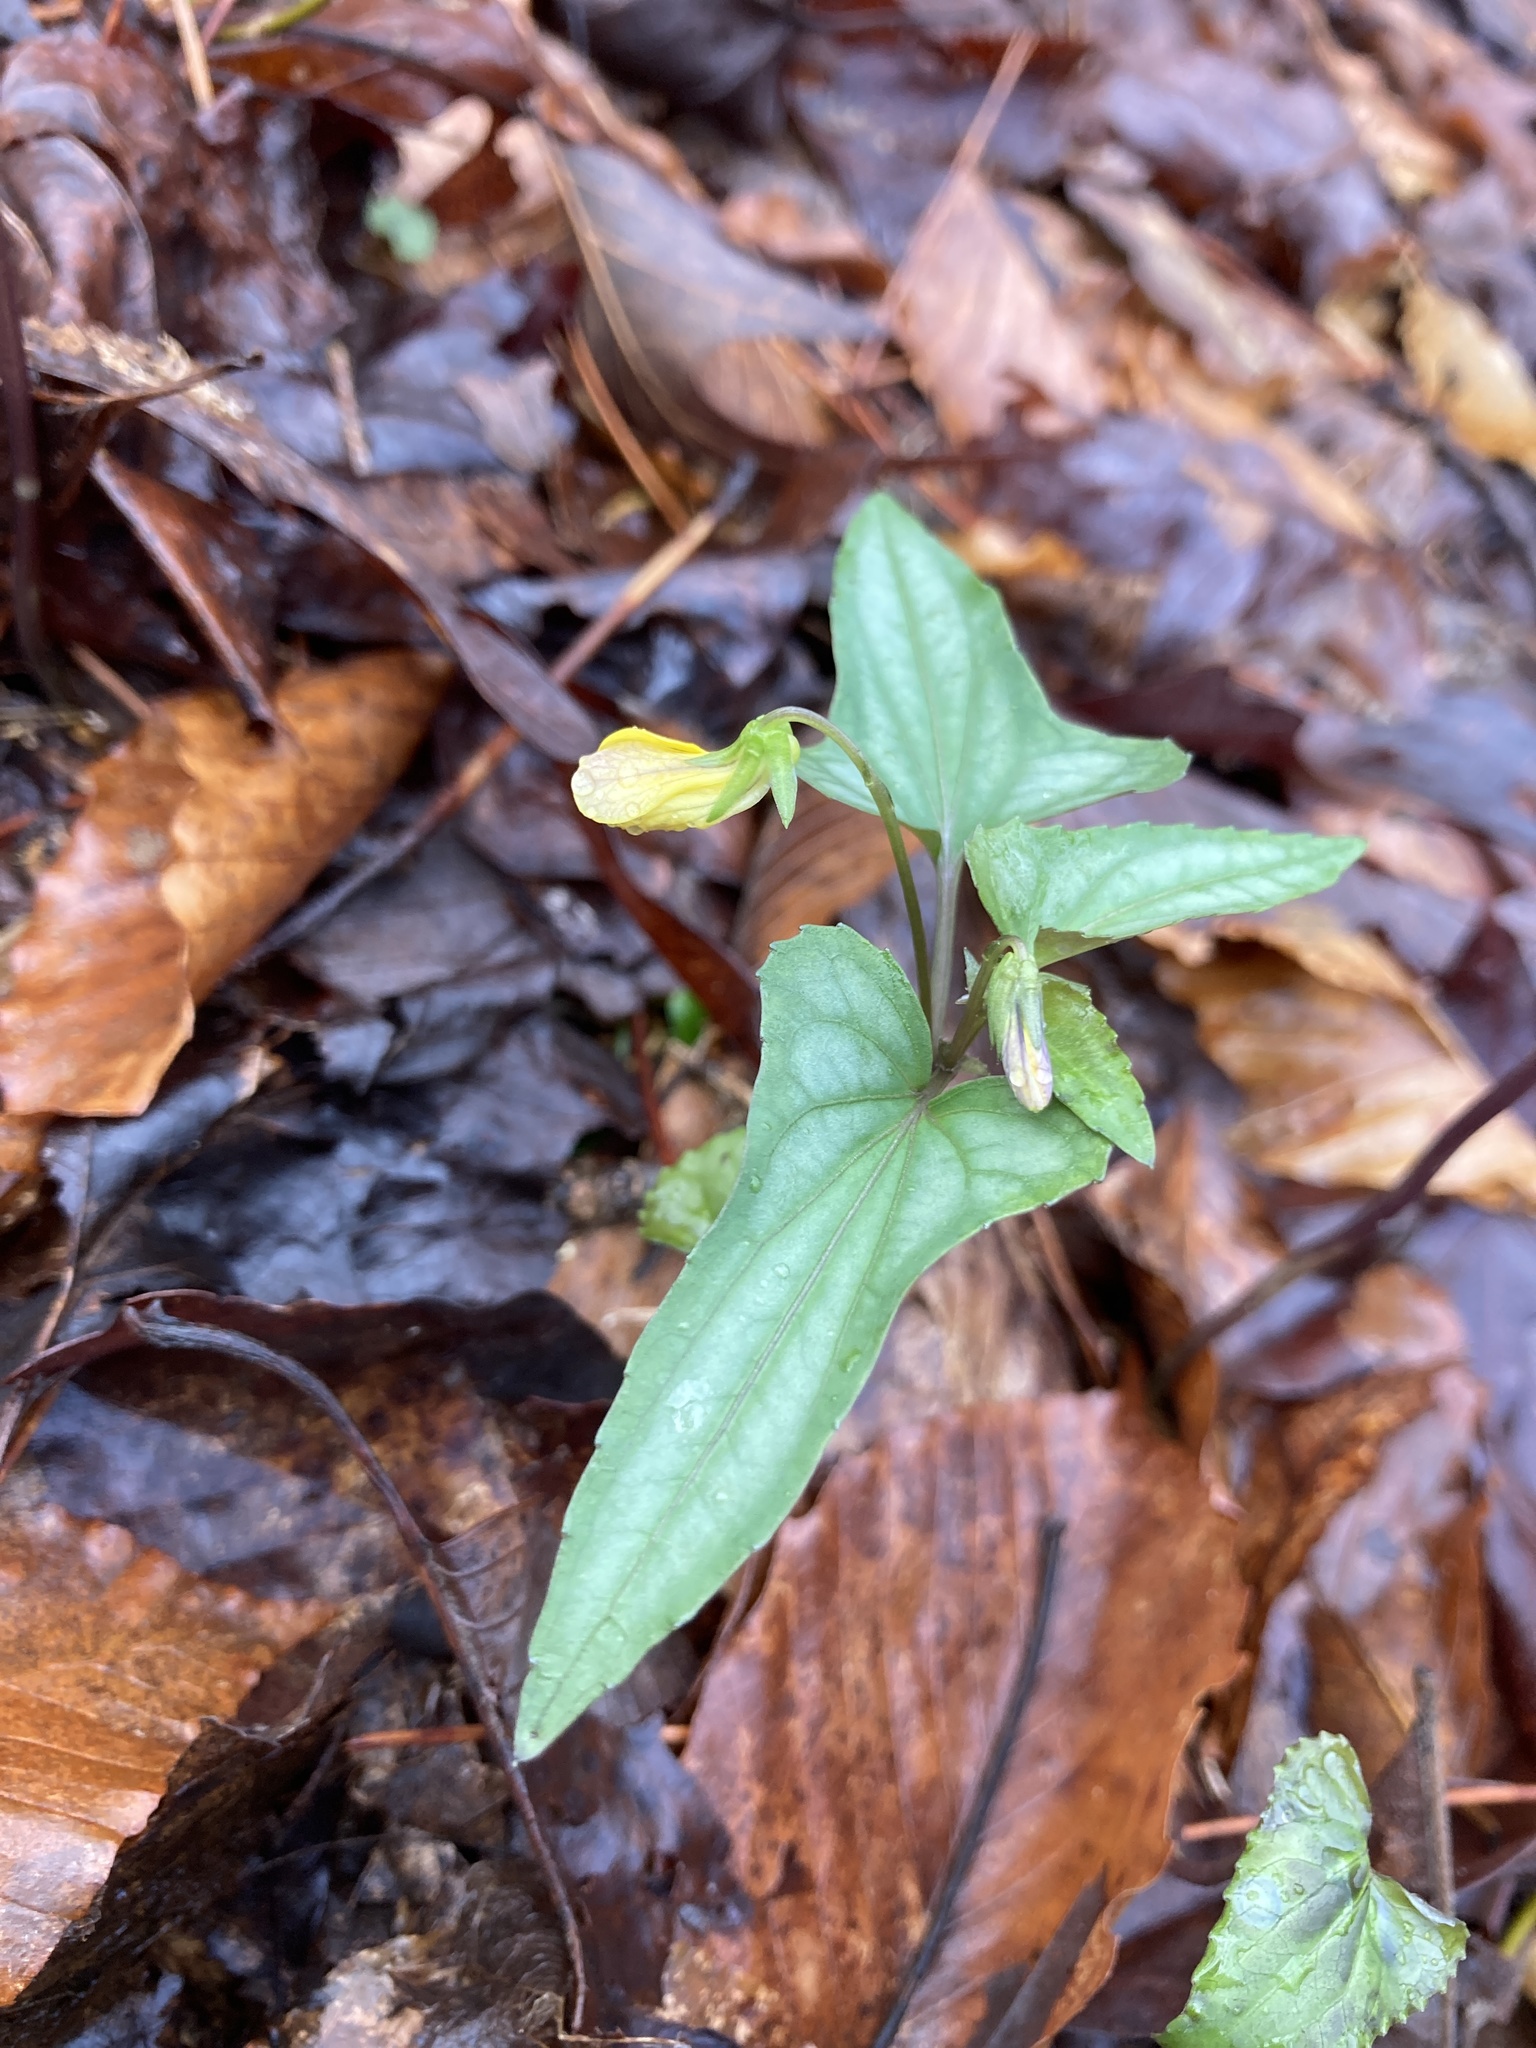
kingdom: Plantae
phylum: Tracheophyta
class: Magnoliopsida
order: Malpighiales
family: Violaceae
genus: Viola
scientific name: Viola hastata
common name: Spear-leaf violet
